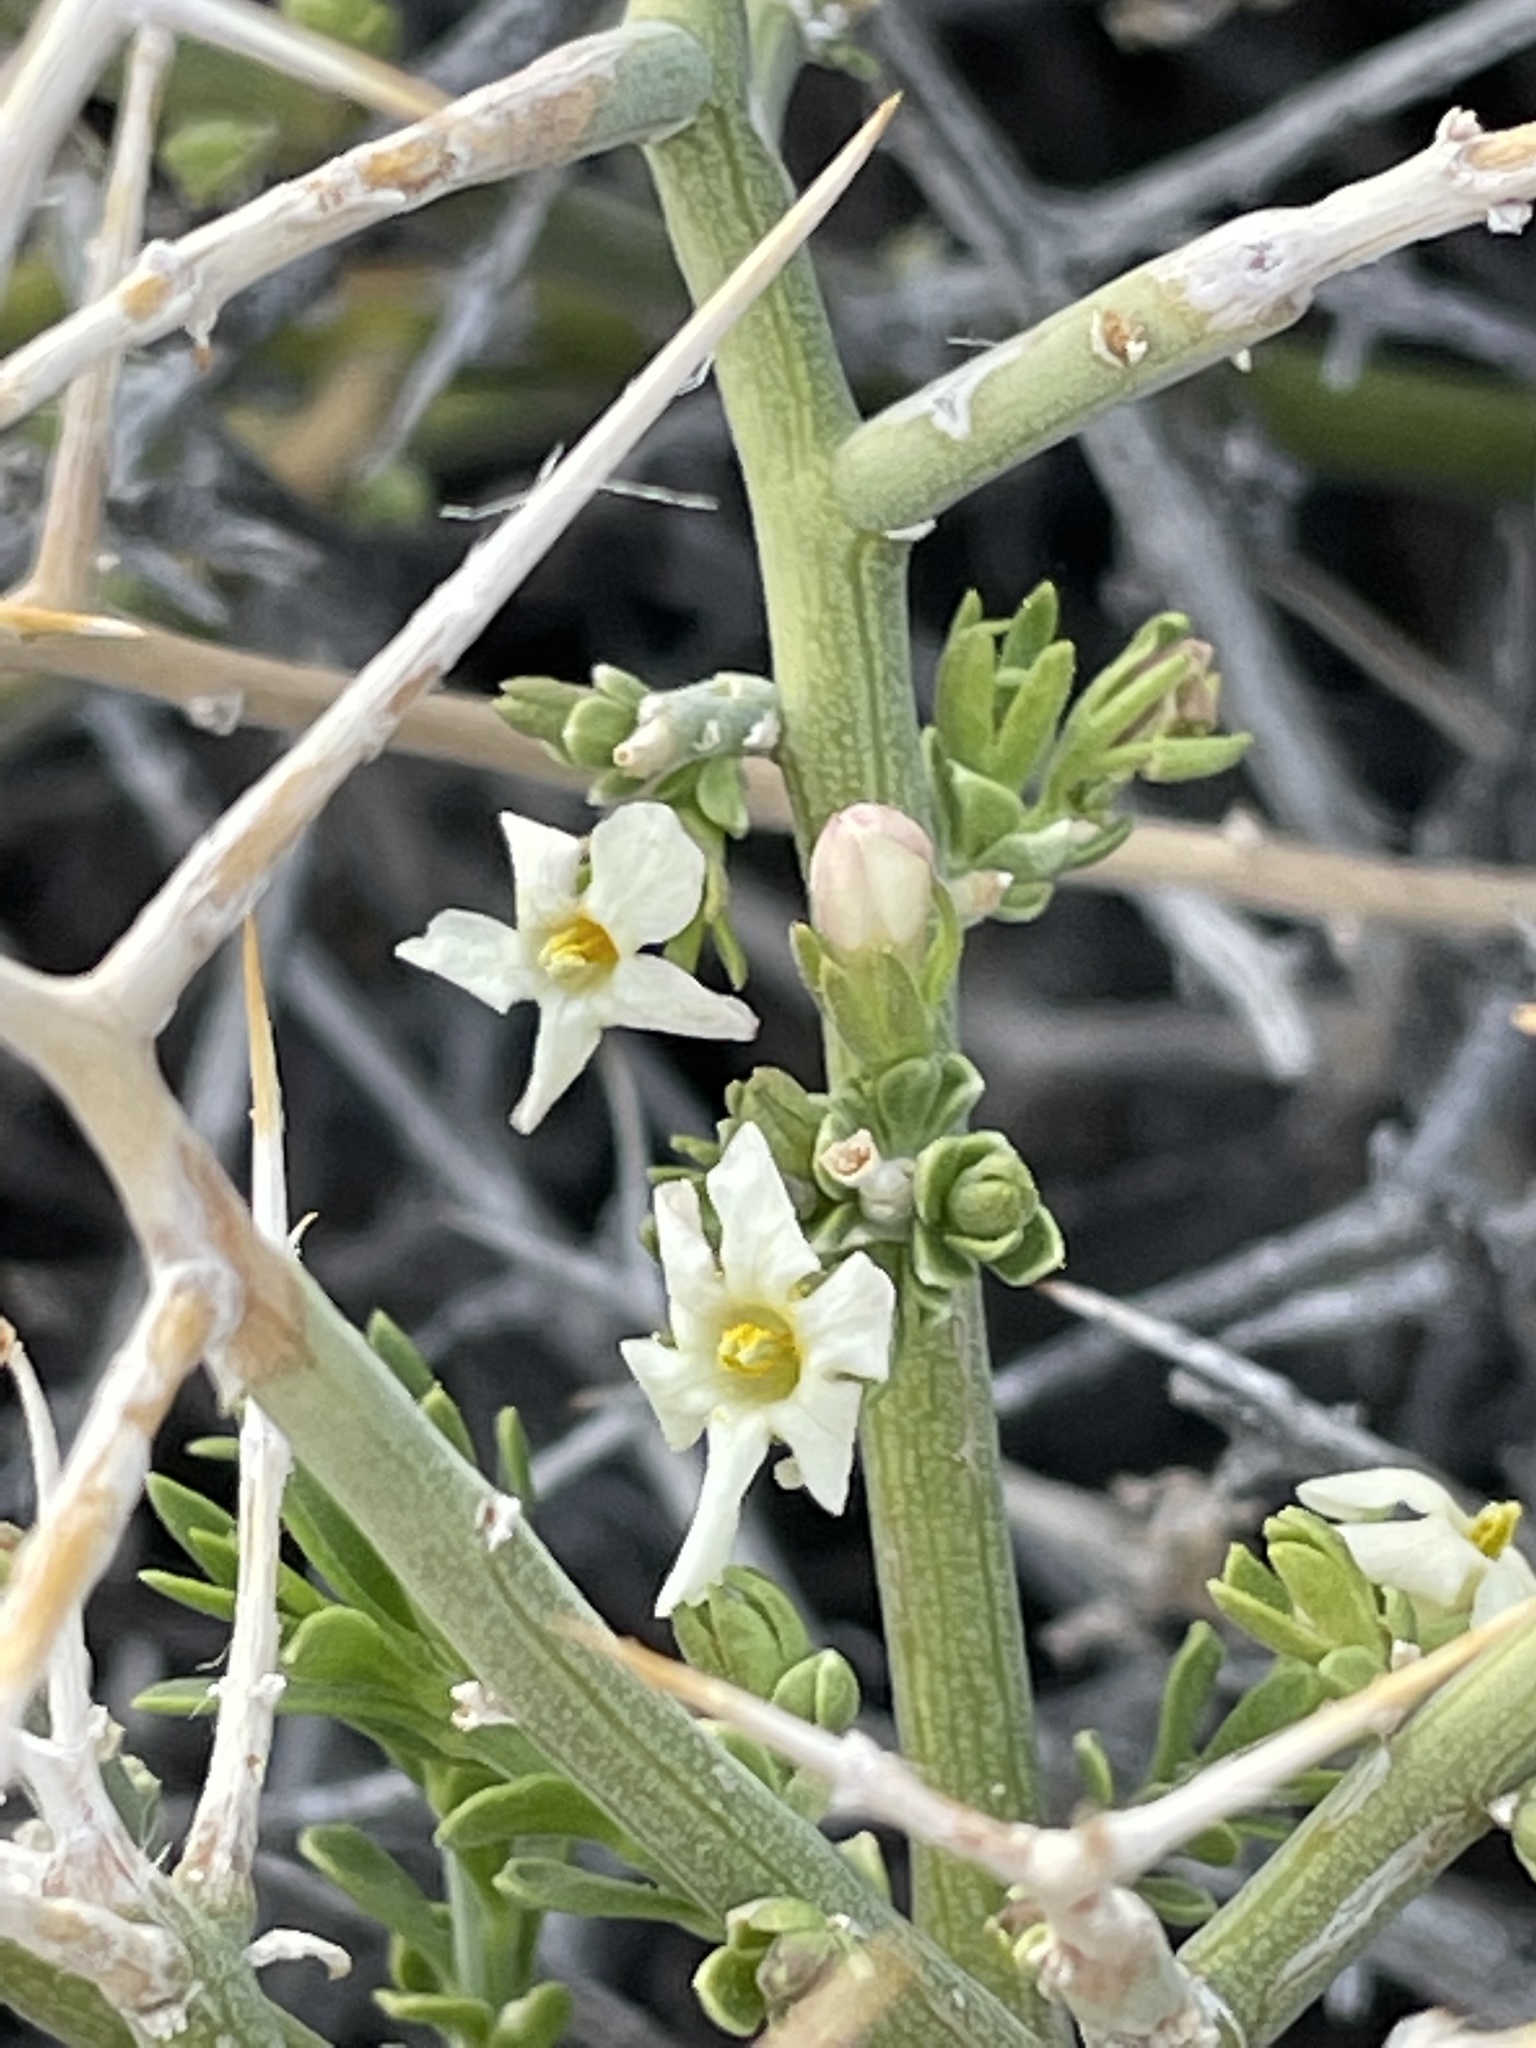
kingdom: Plantae
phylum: Tracheophyta
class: Magnoliopsida
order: Lamiales
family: Oleaceae
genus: Menodora
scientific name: Menodora spinescens
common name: Spiny menodora
